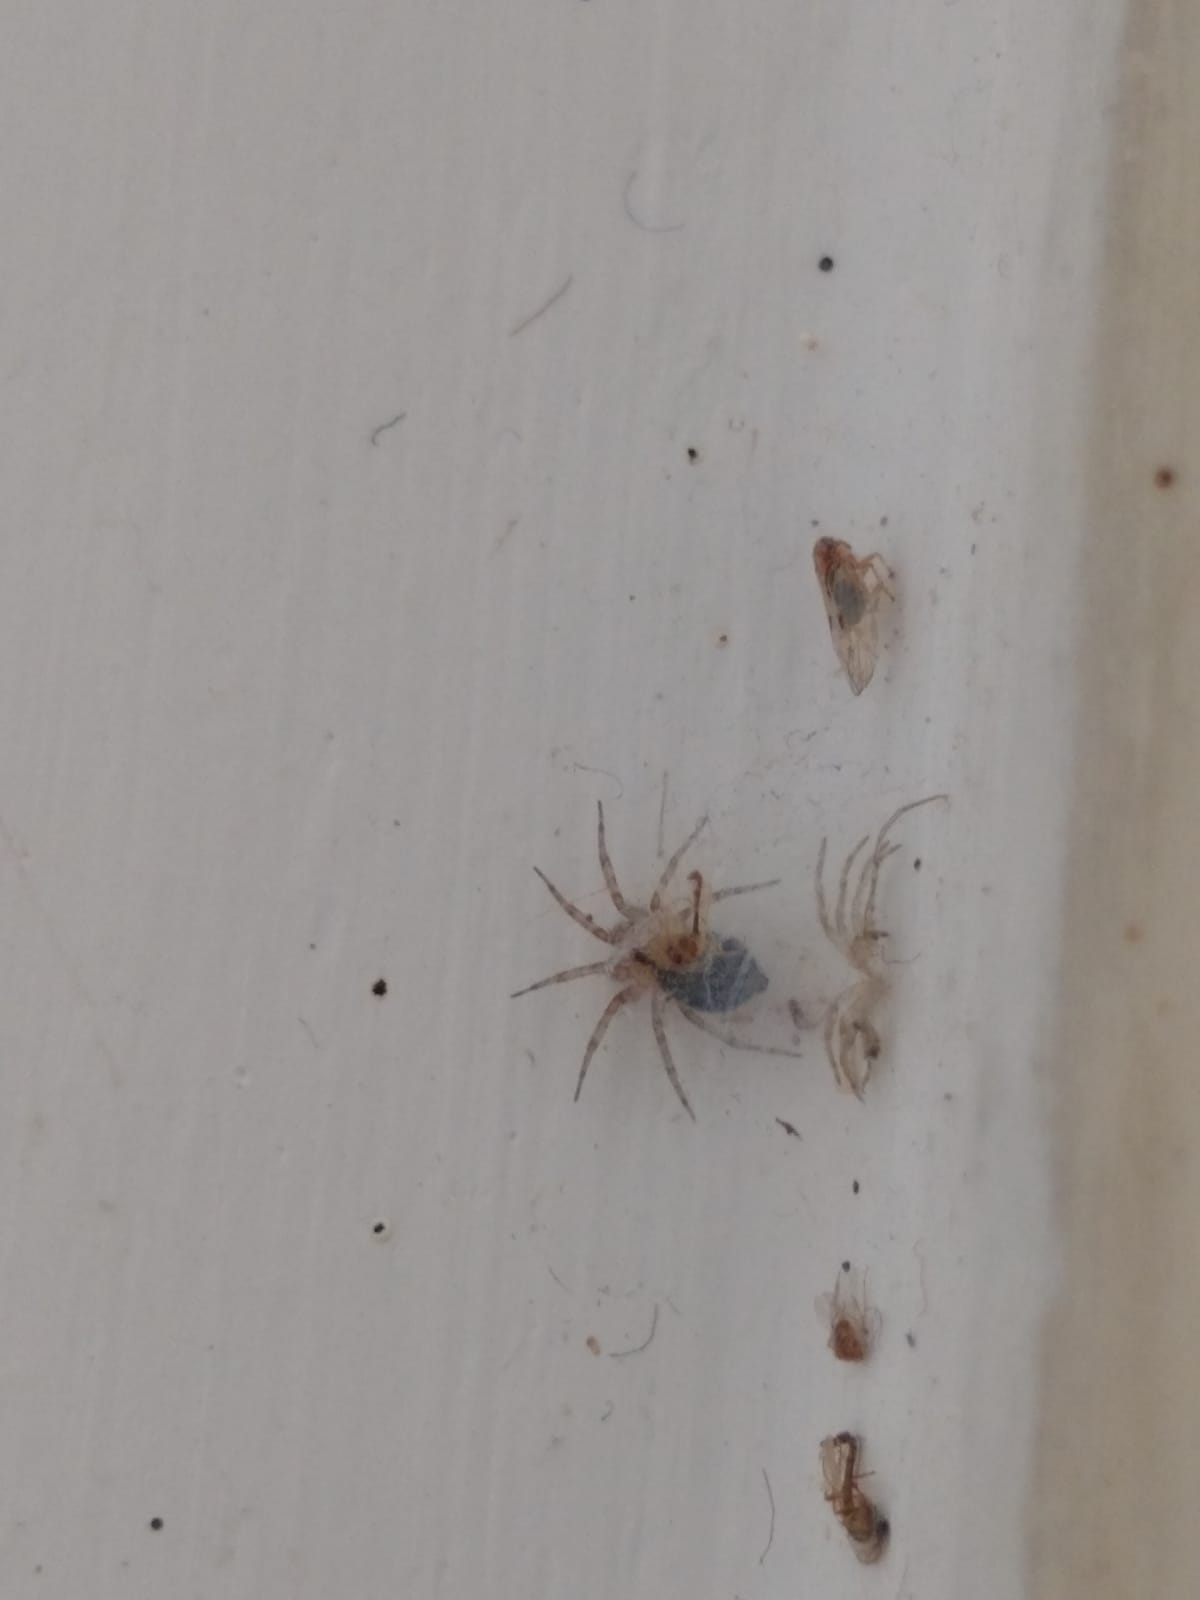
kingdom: Animalia
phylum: Arthropoda
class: Arachnida
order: Araneae
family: Oecobiidae
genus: Oecobius
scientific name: Oecobius navus
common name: Flatmesh weaver
